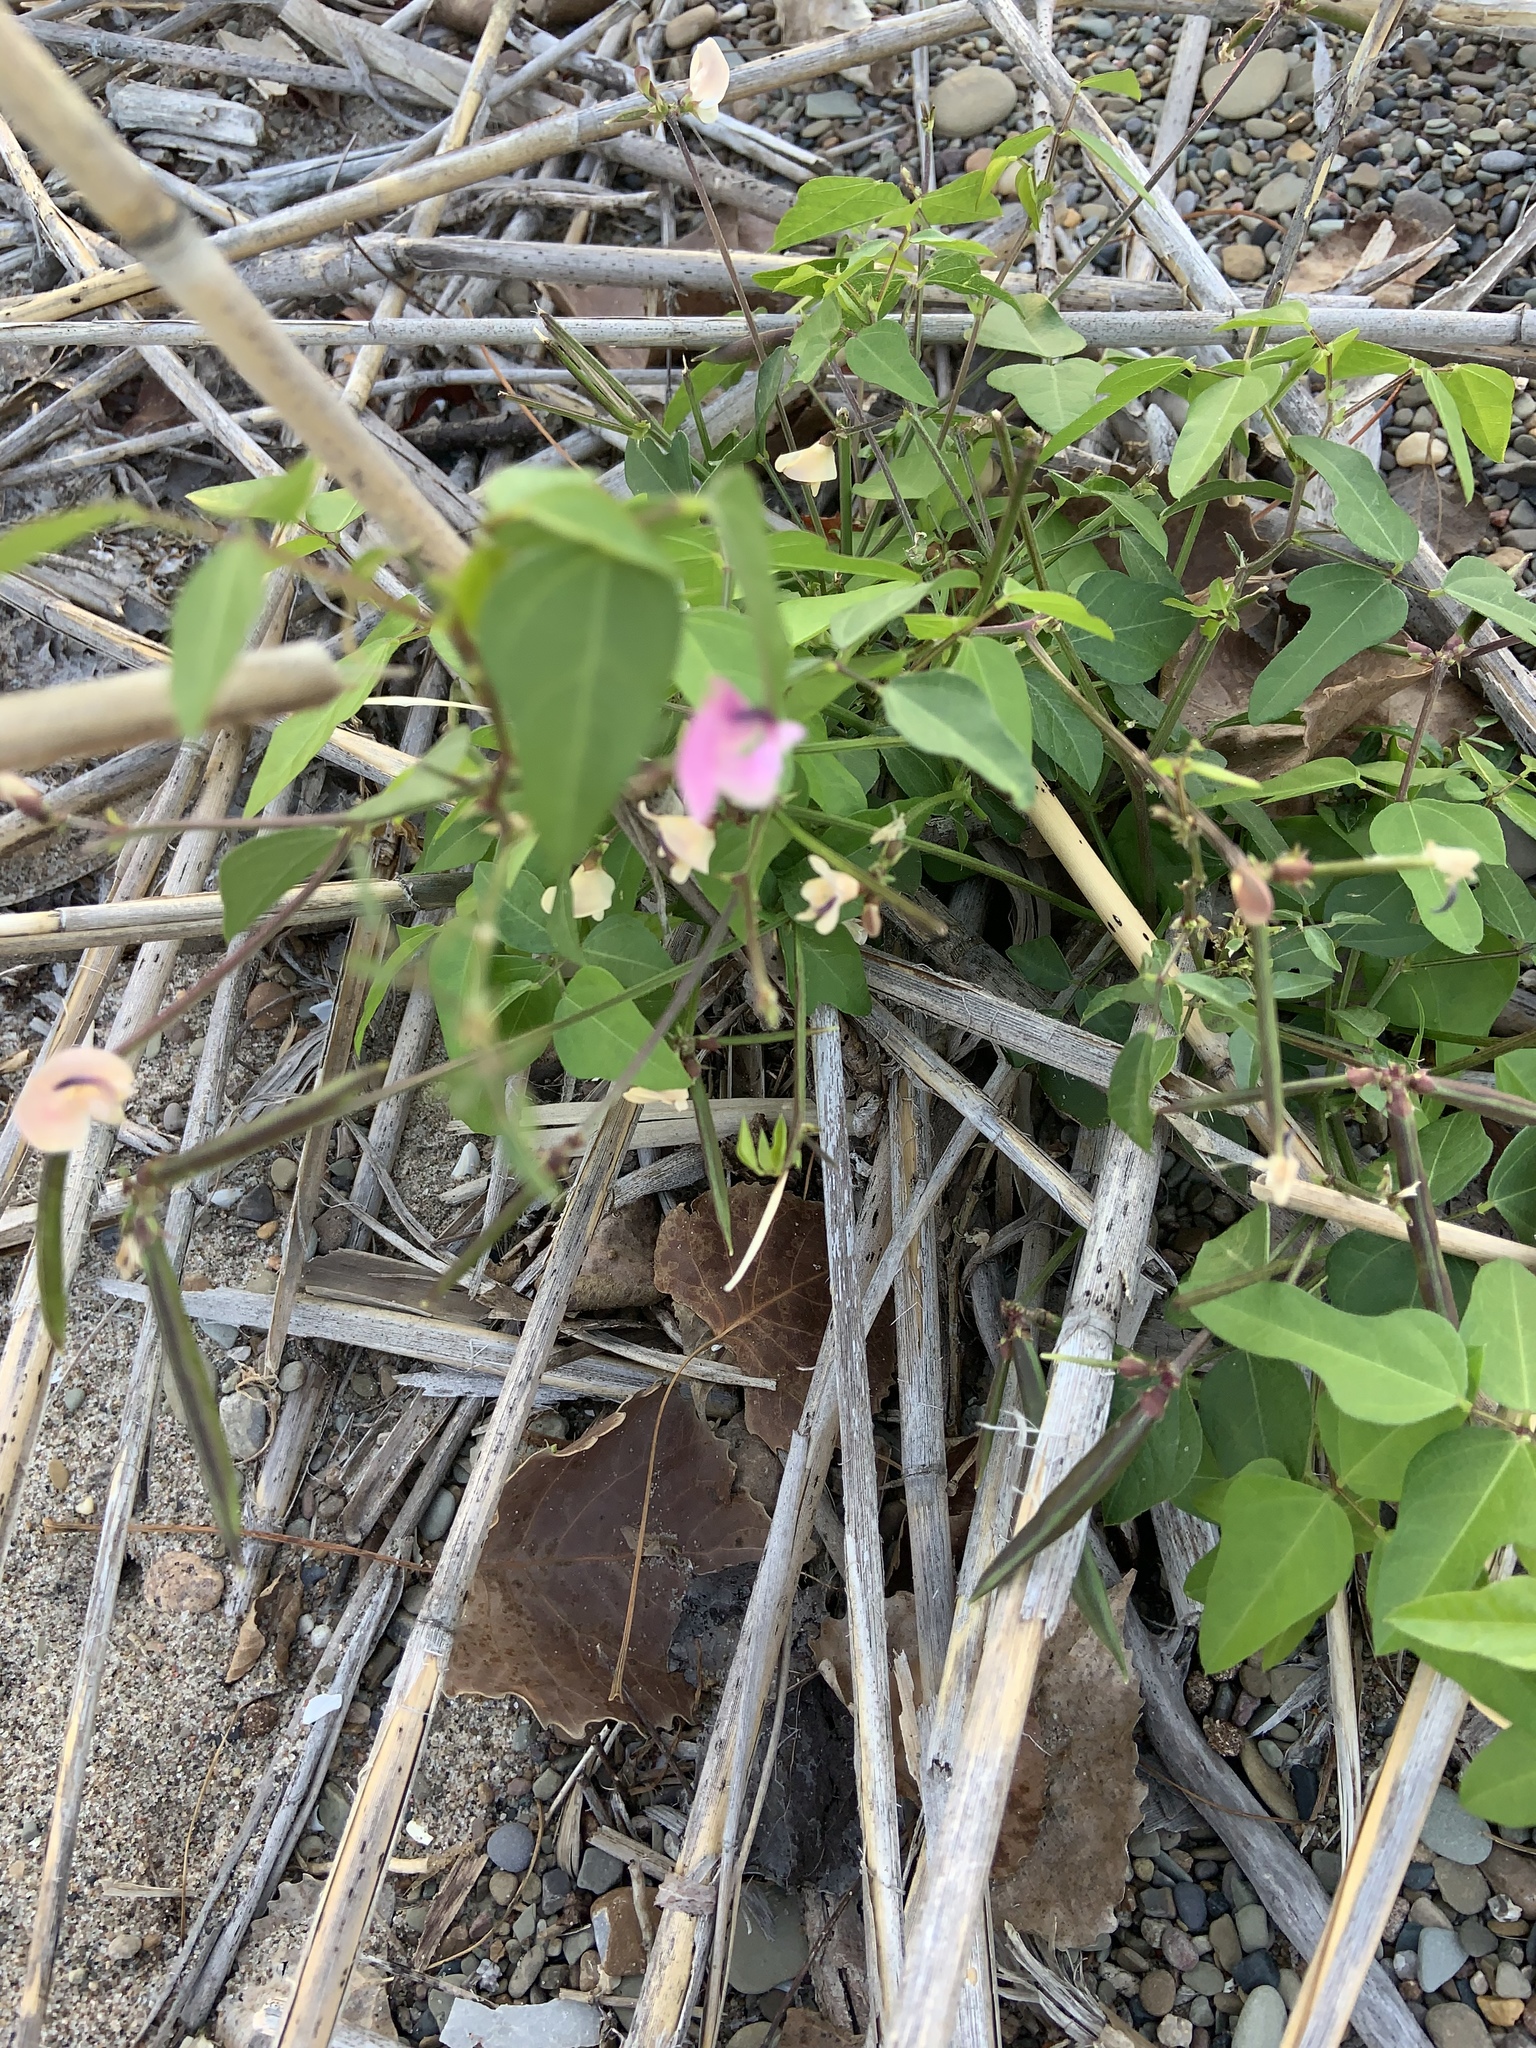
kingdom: Plantae
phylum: Tracheophyta
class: Magnoliopsida
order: Fabales
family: Fabaceae
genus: Strophostyles
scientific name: Strophostyles helvola
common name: Trailing wild bean
